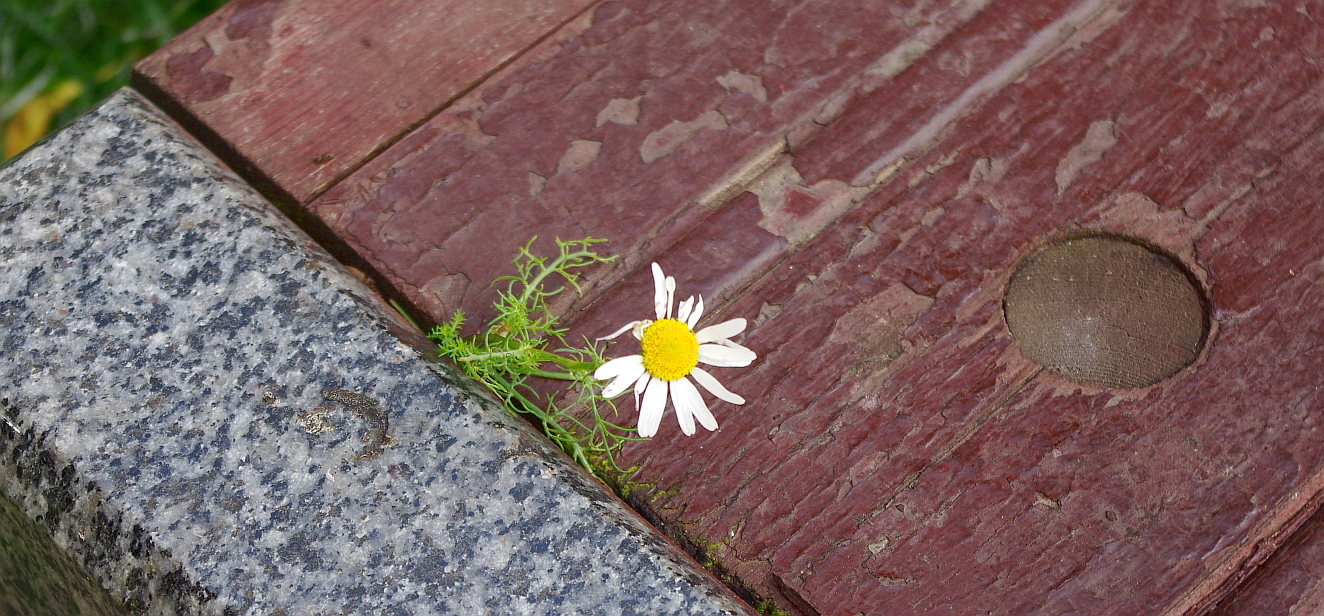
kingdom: Plantae
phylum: Tracheophyta
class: Magnoliopsida
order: Asterales
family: Asteraceae
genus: Tripleurospermum
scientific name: Tripleurospermum inodorum
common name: Scentless mayweed
